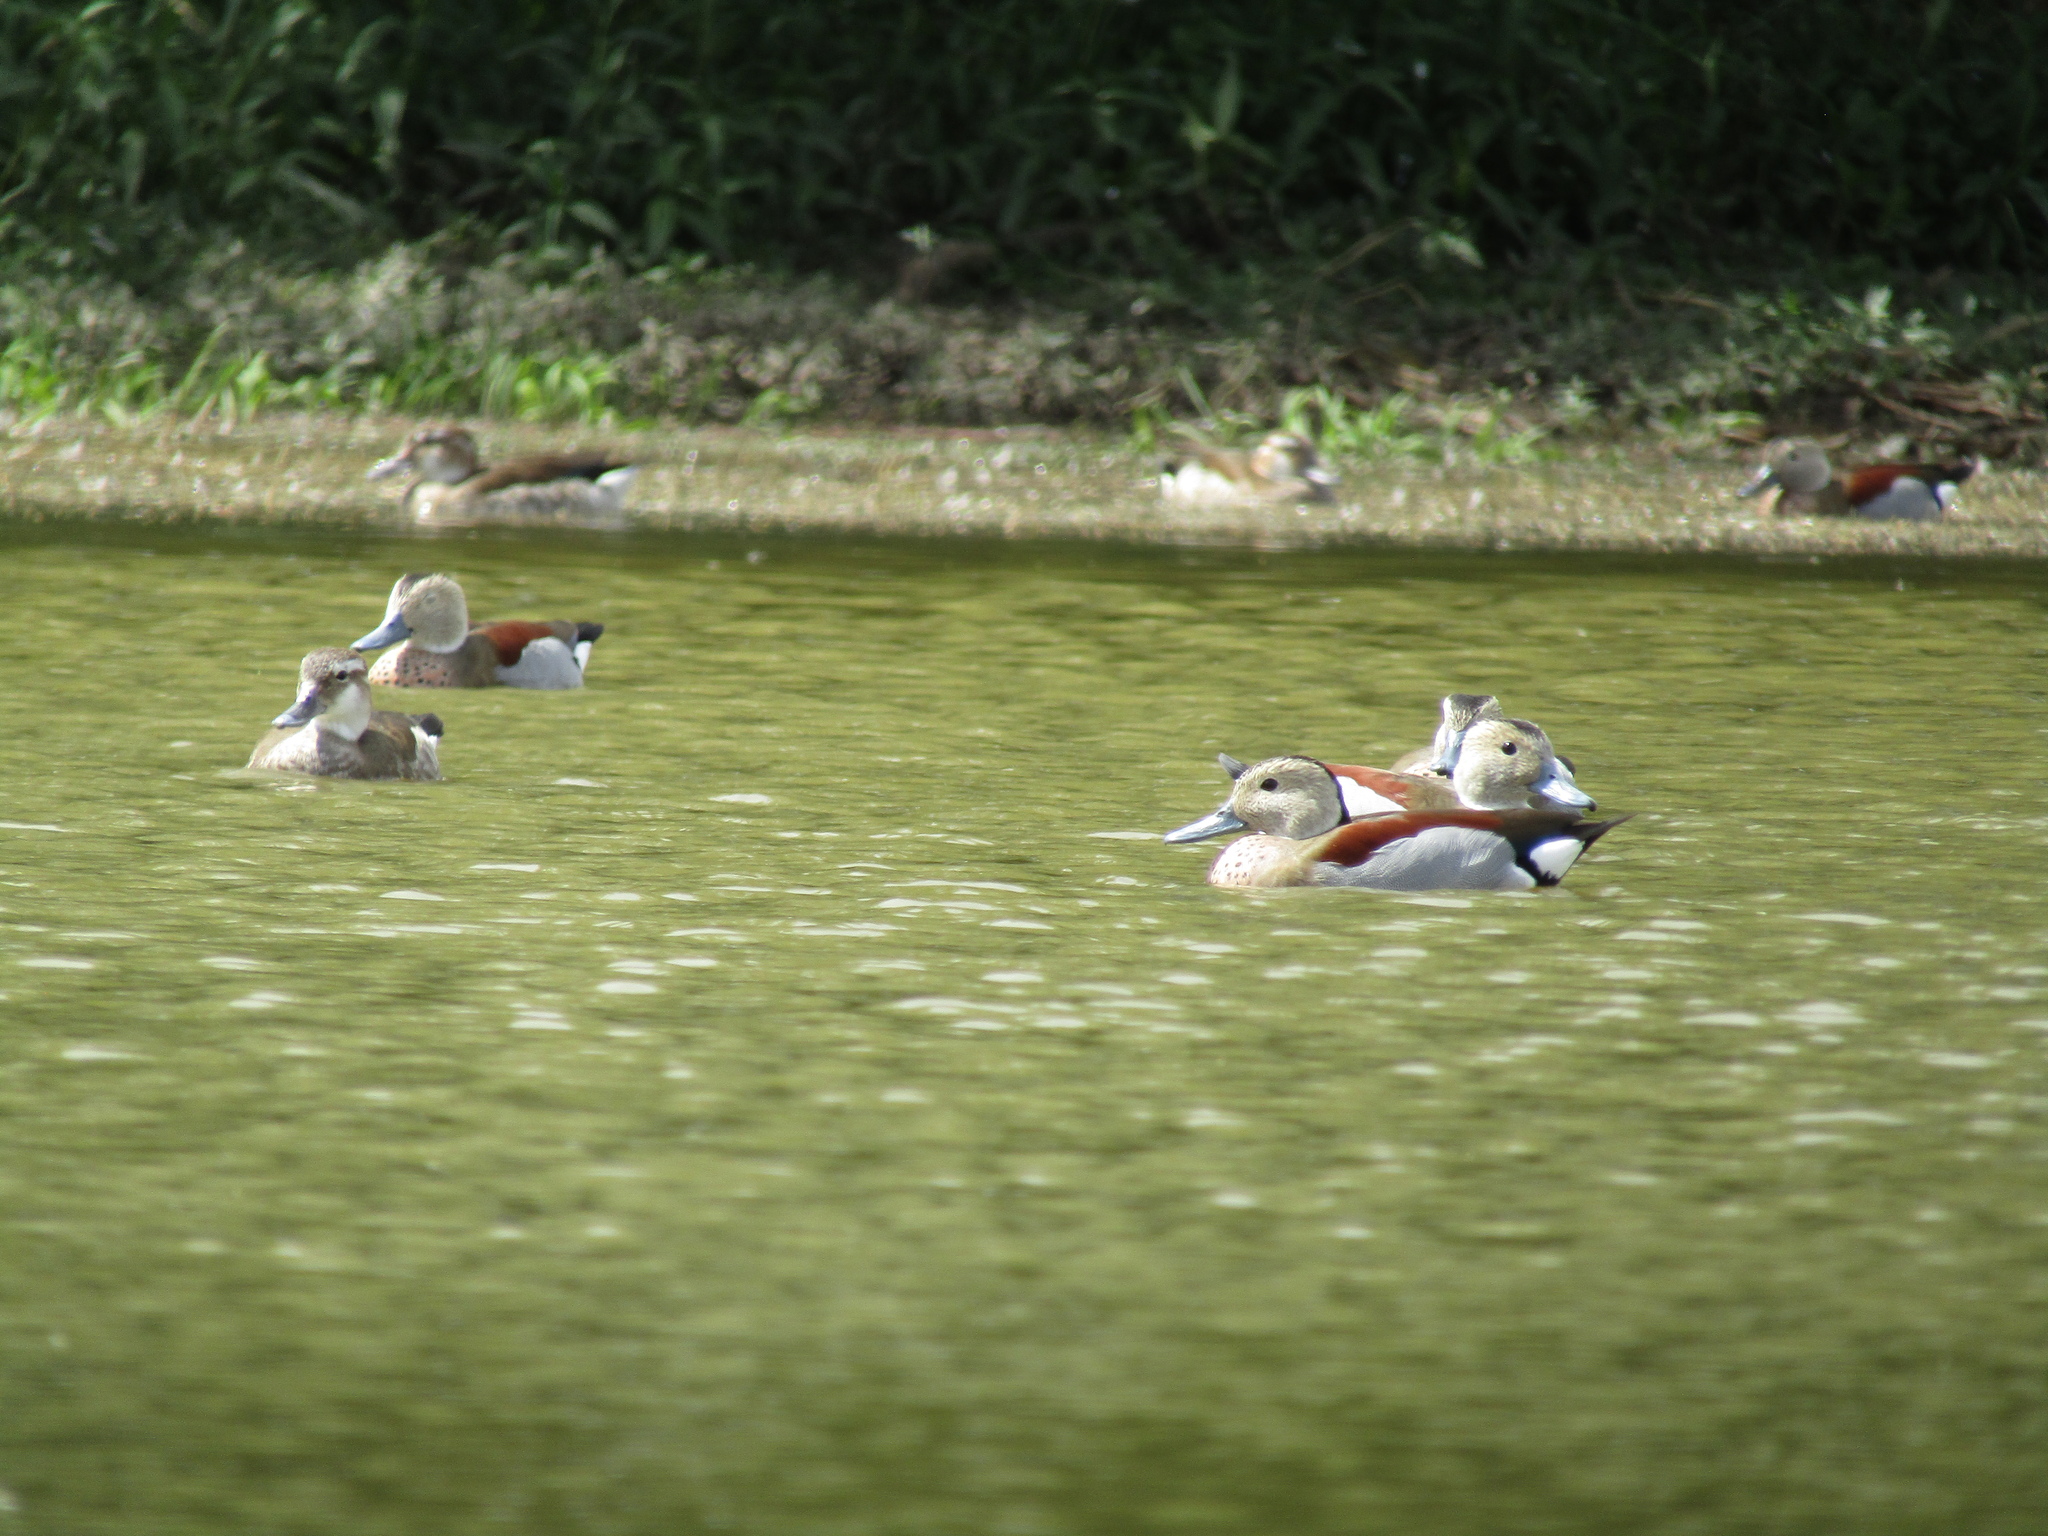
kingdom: Animalia
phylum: Chordata
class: Aves
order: Anseriformes
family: Anatidae
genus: Callonetta
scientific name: Callonetta leucophrys
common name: Ringed teal
